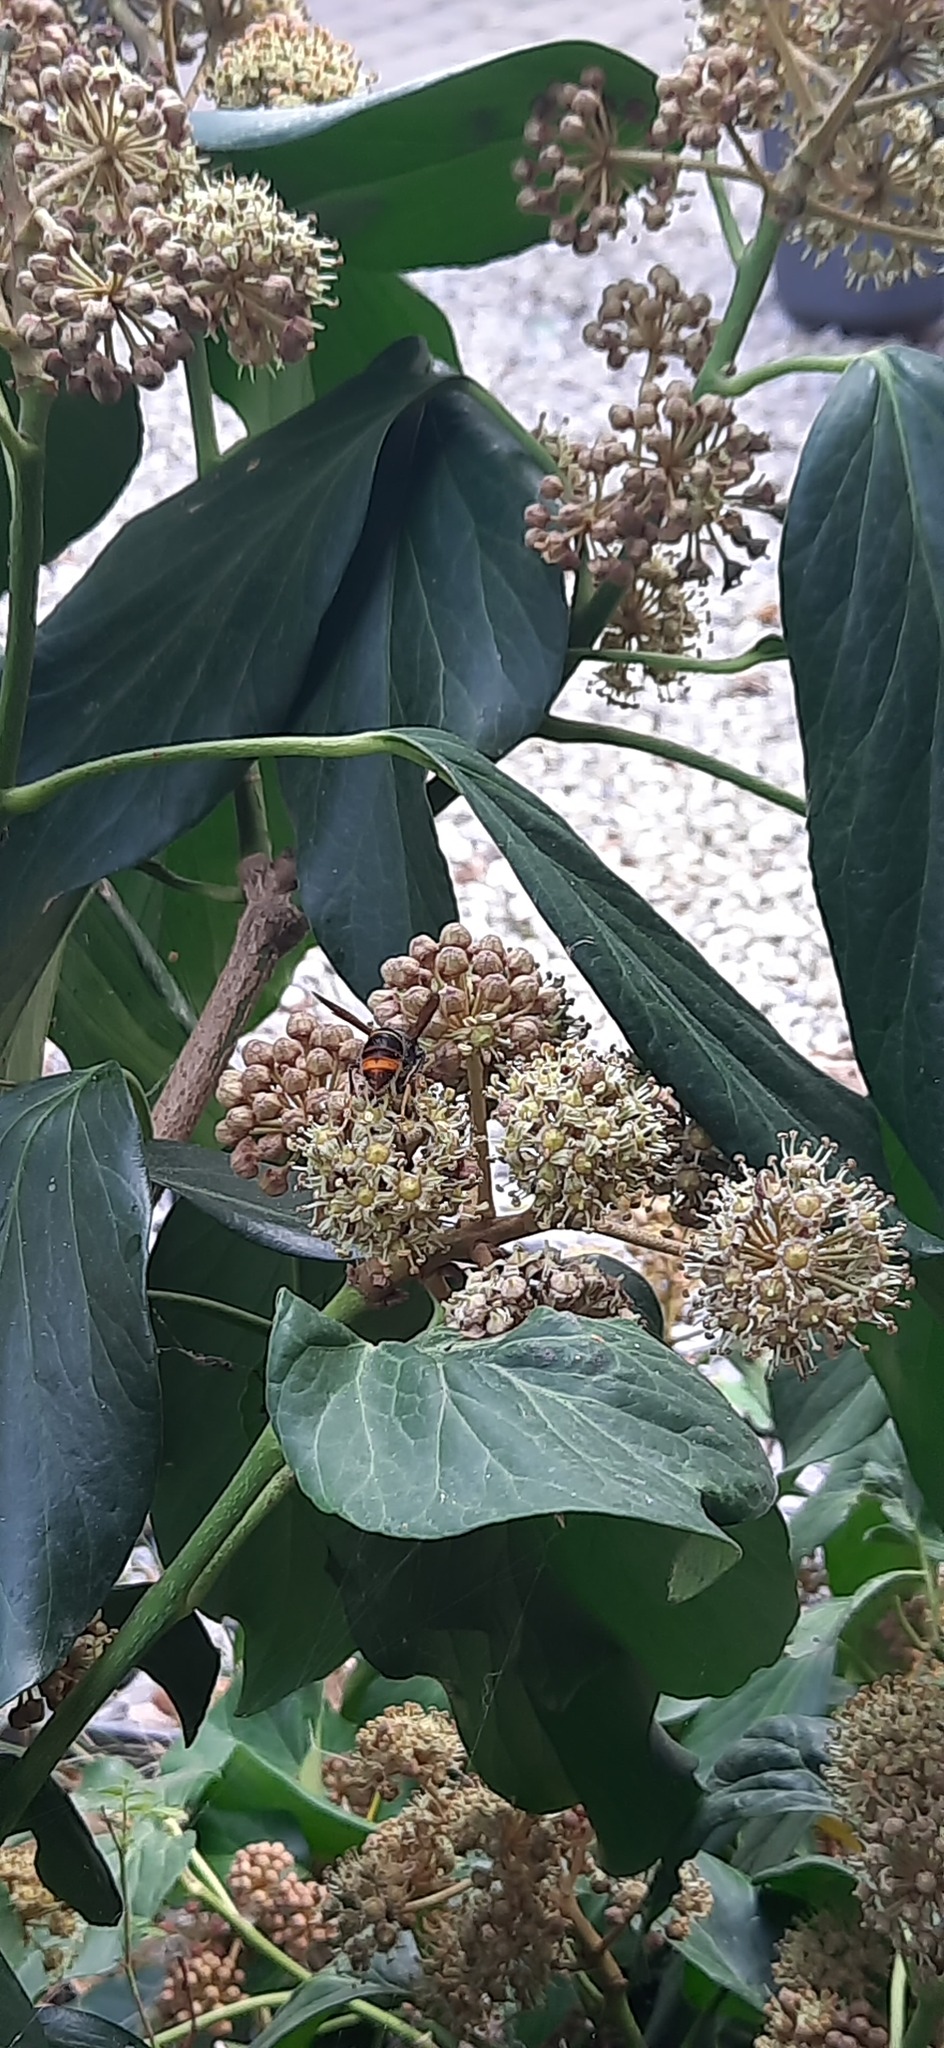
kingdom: Animalia
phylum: Arthropoda
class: Insecta
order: Hymenoptera
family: Vespidae
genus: Vespa
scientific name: Vespa velutina
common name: Asian hornet
